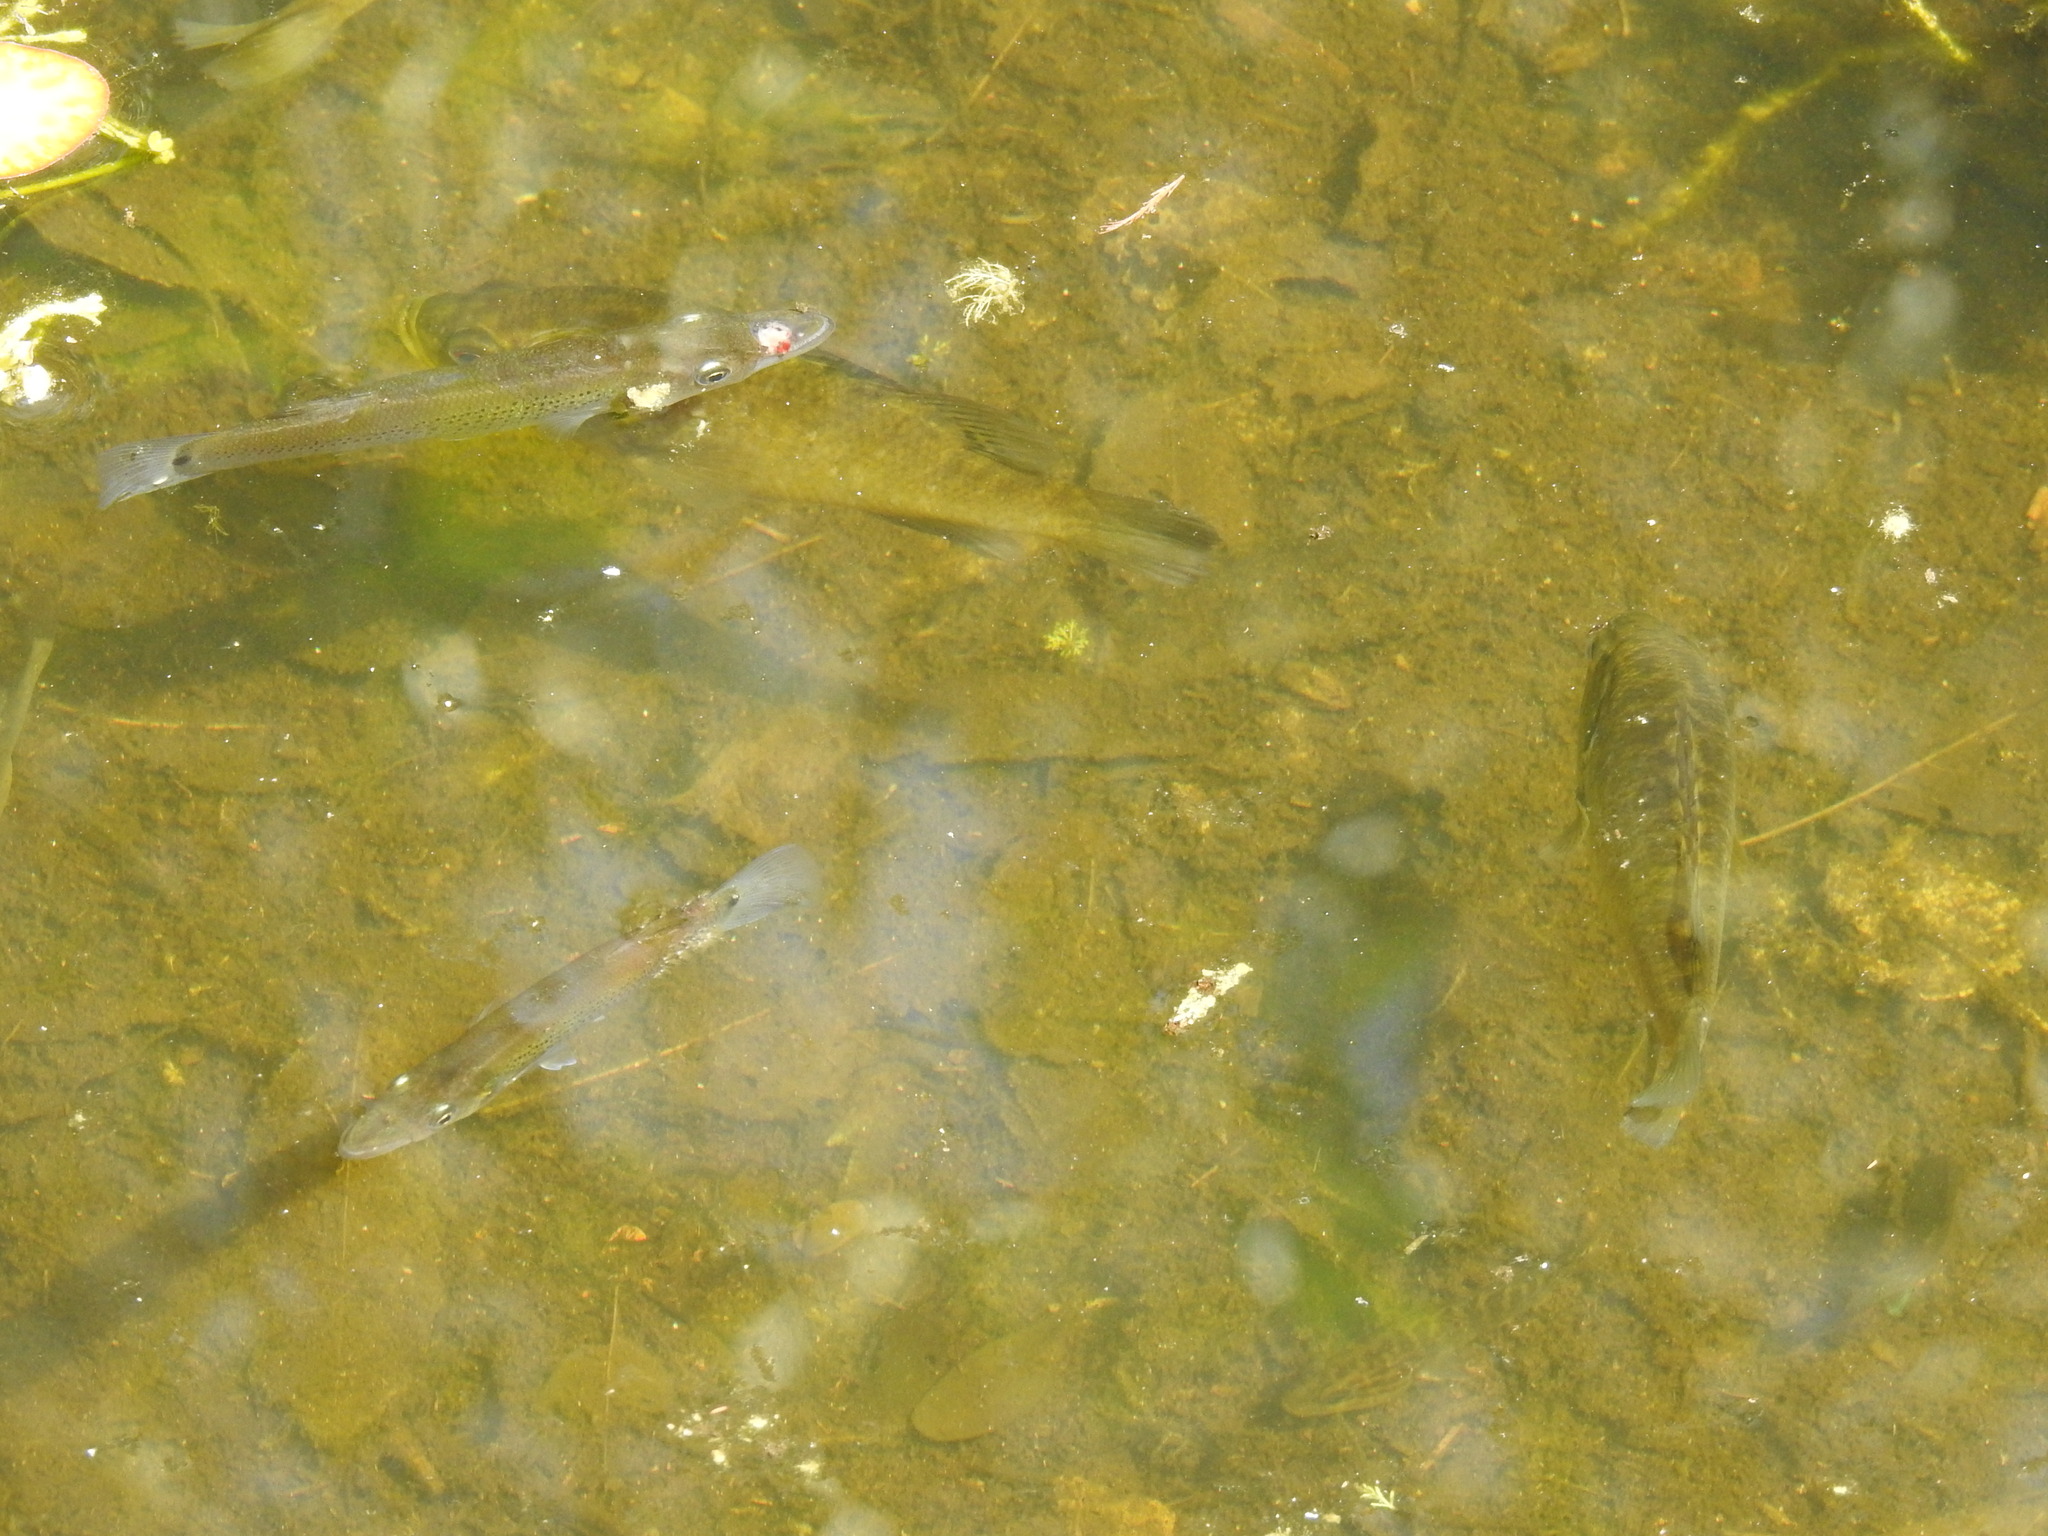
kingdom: Animalia
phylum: Chordata
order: Cyprinodontiformes
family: Poeciliidae
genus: Belonesox
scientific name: Belonesox belizanus
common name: Pike killifish
